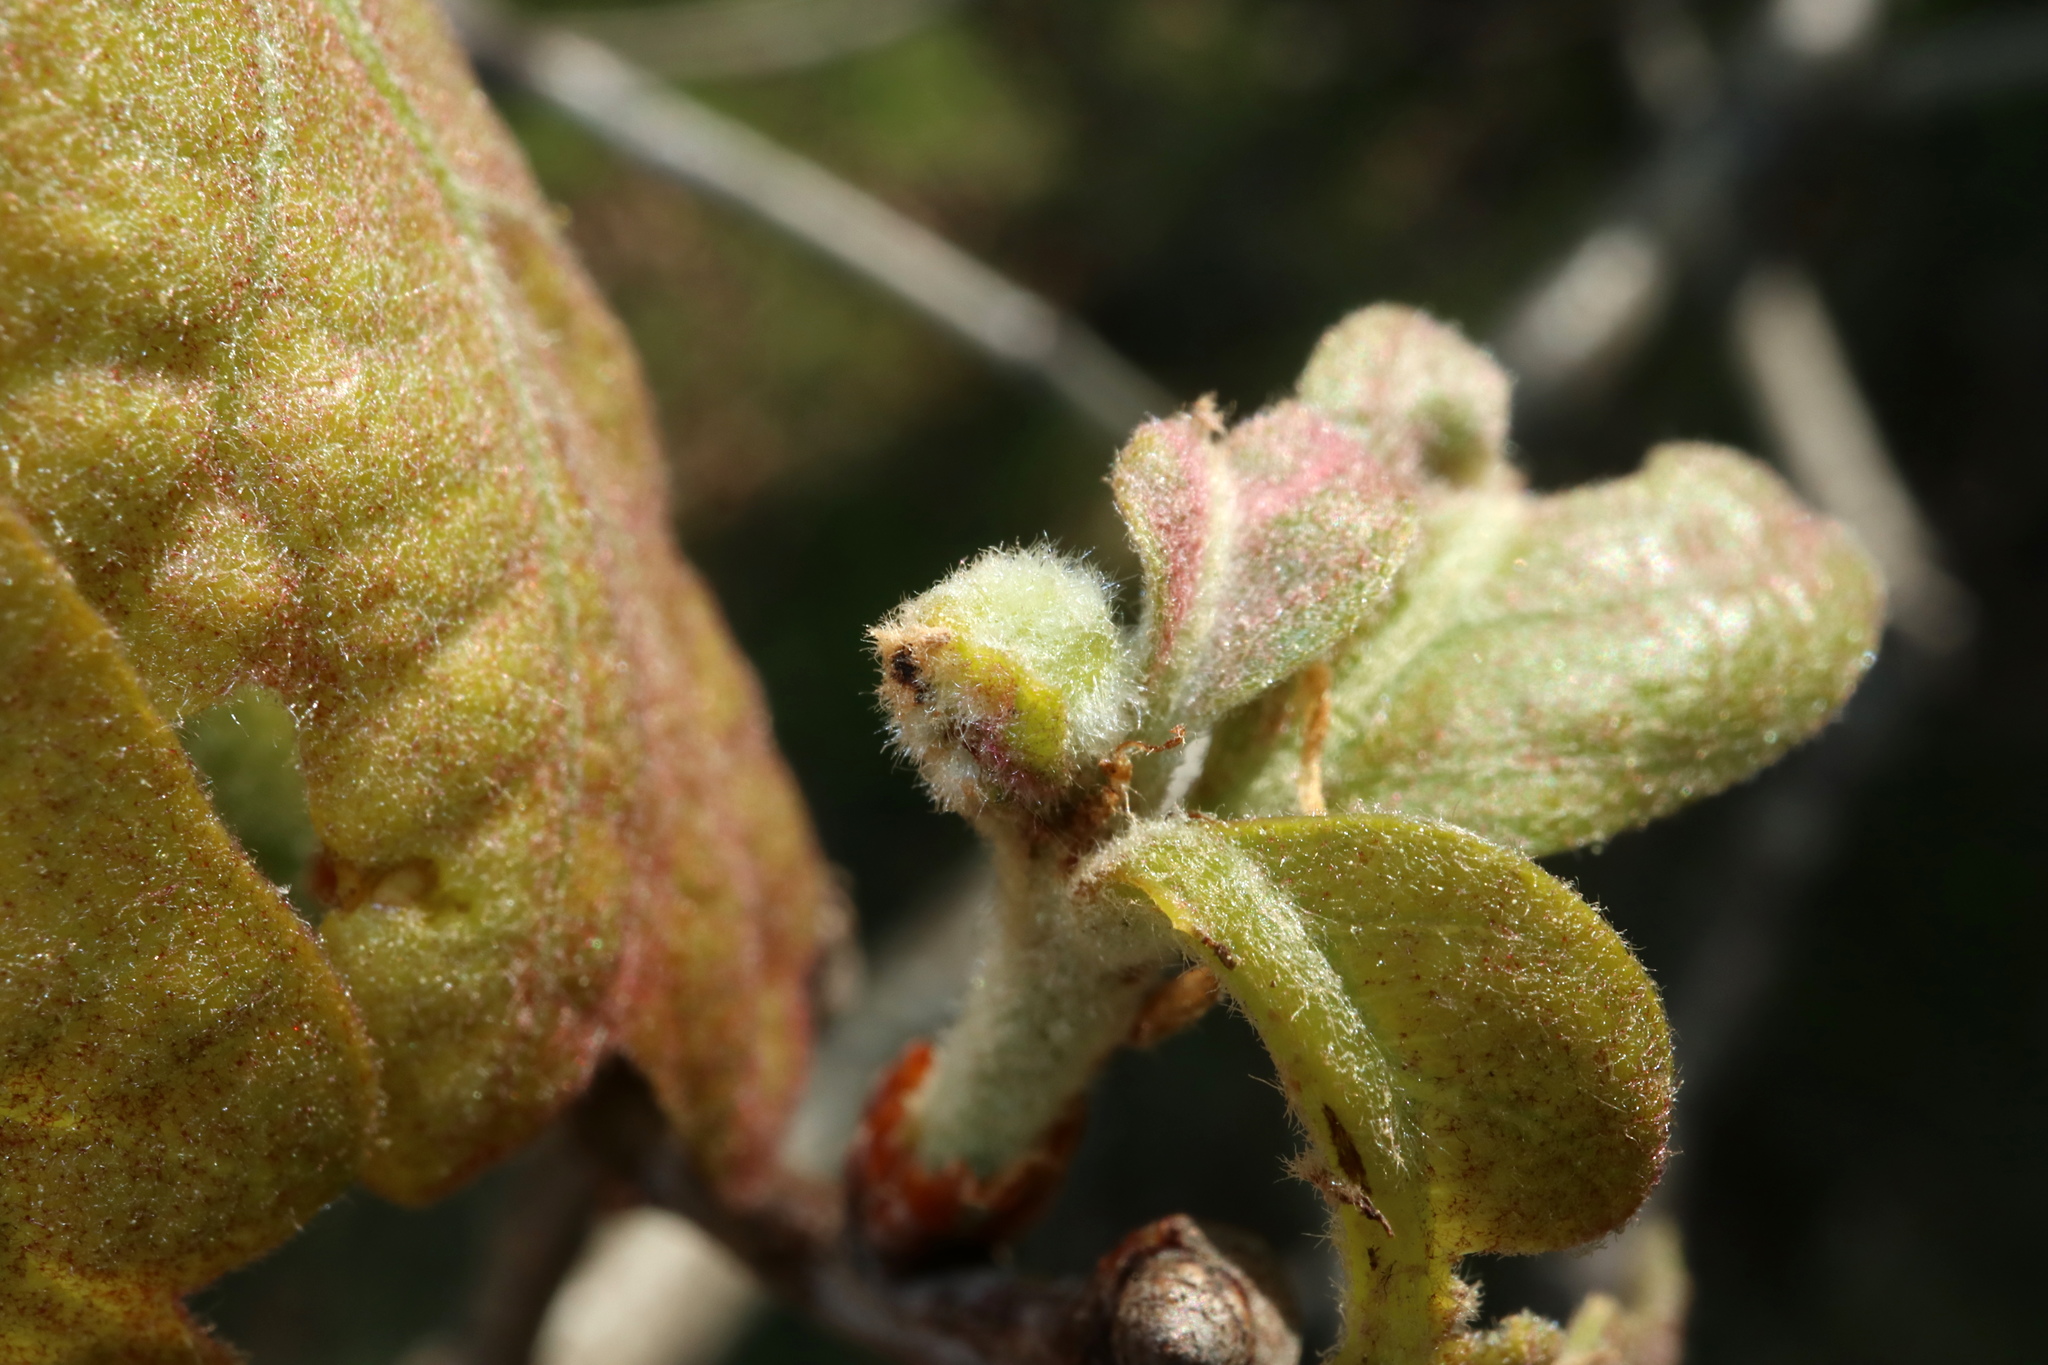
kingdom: Animalia
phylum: Arthropoda
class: Insecta
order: Hymenoptera
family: Cynipidae
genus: Neuroterus
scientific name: Neuroterus minutulus
